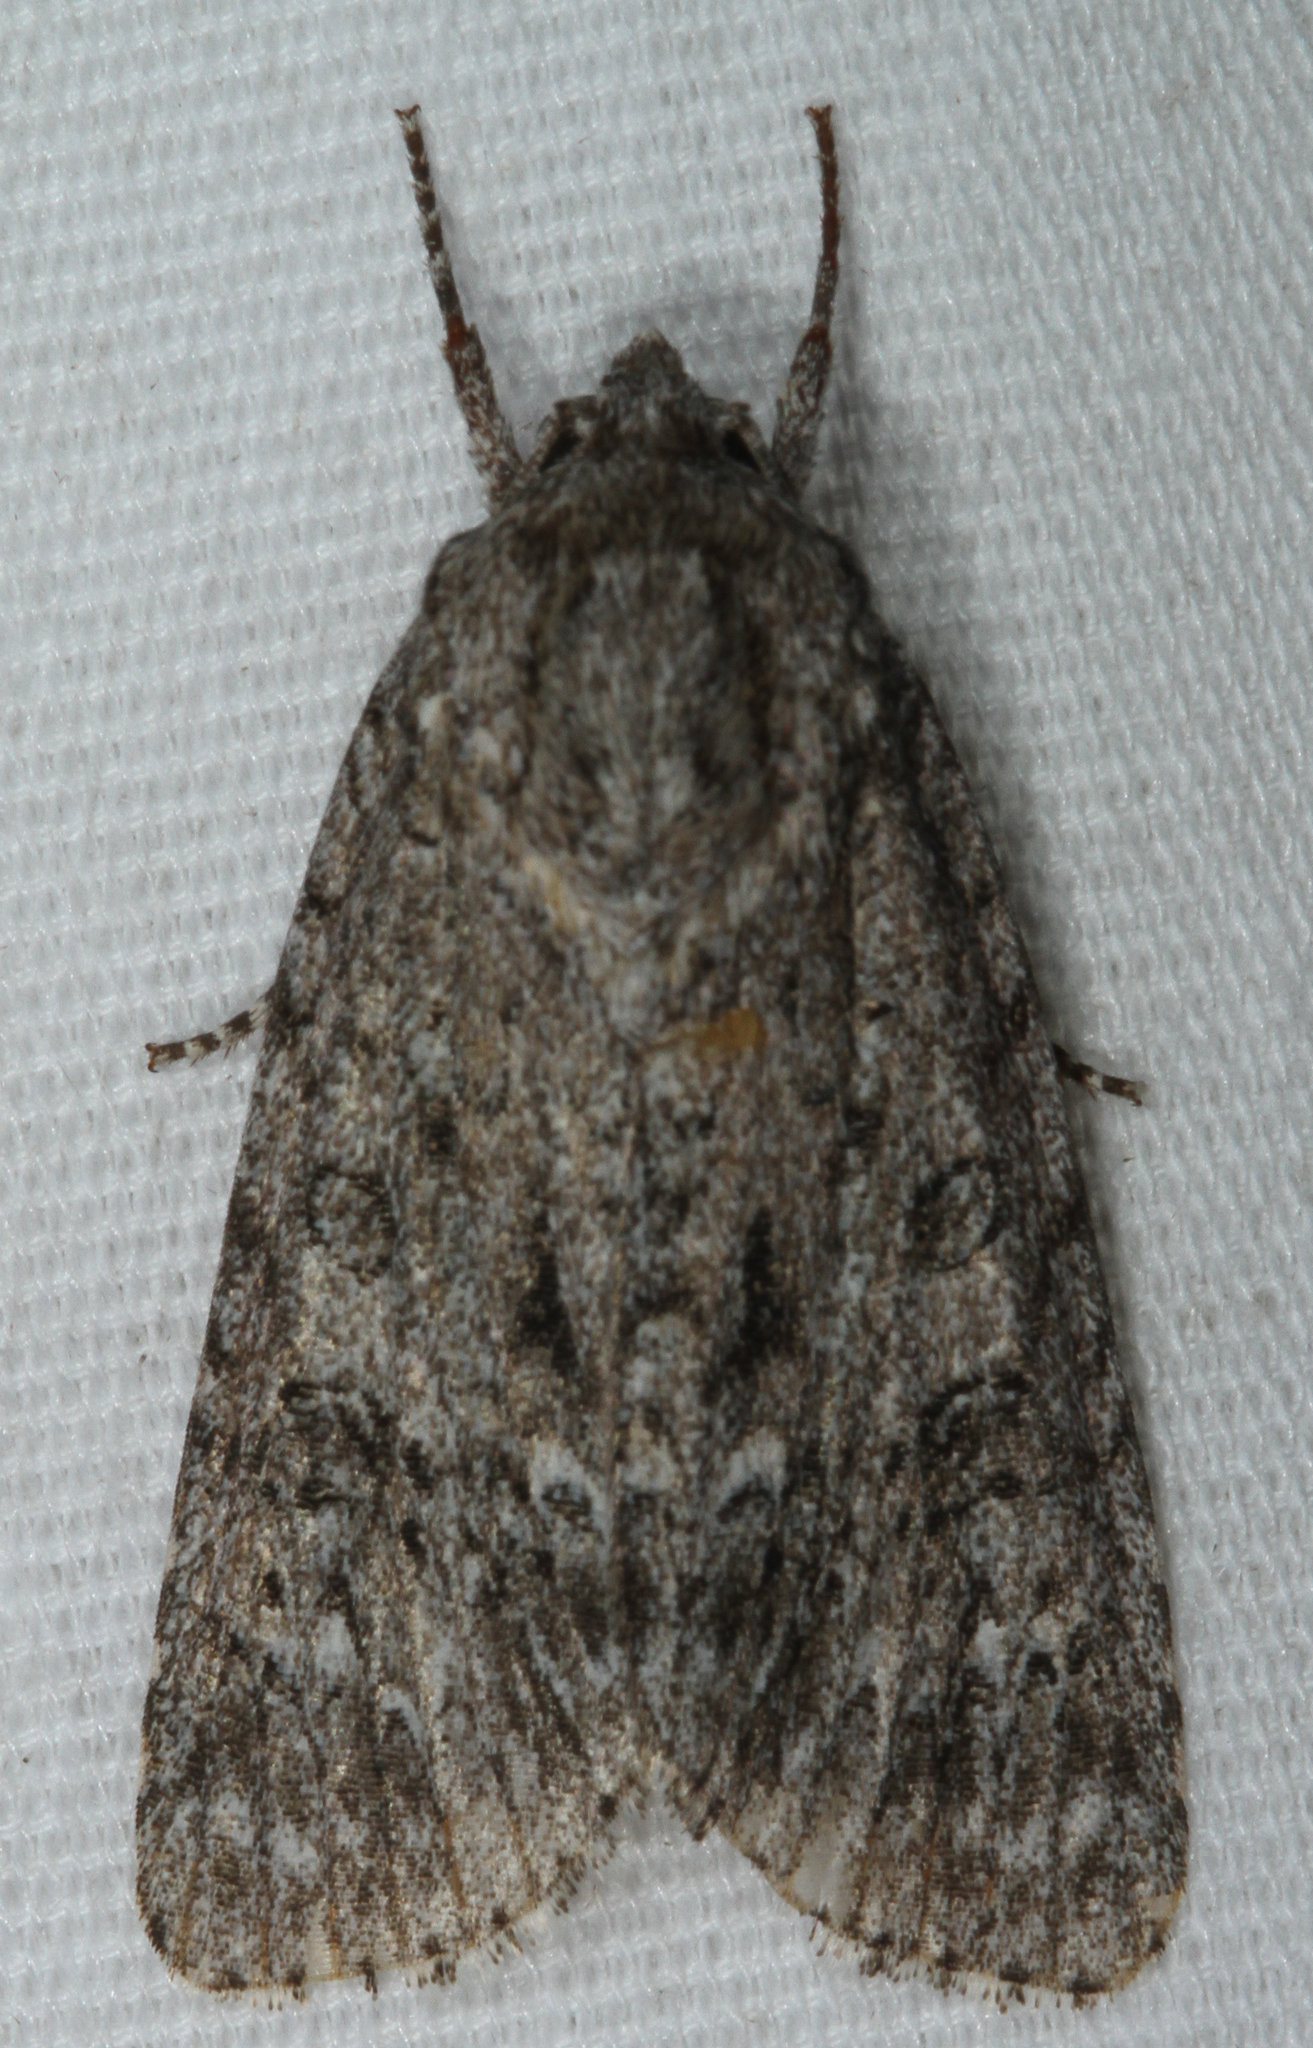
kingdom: Animalia
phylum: Arthropoda
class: Insecta
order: Lepidoptera
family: Noctuidae
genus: Acronicta
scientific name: Acronicta impleta
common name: Powdered dagger
